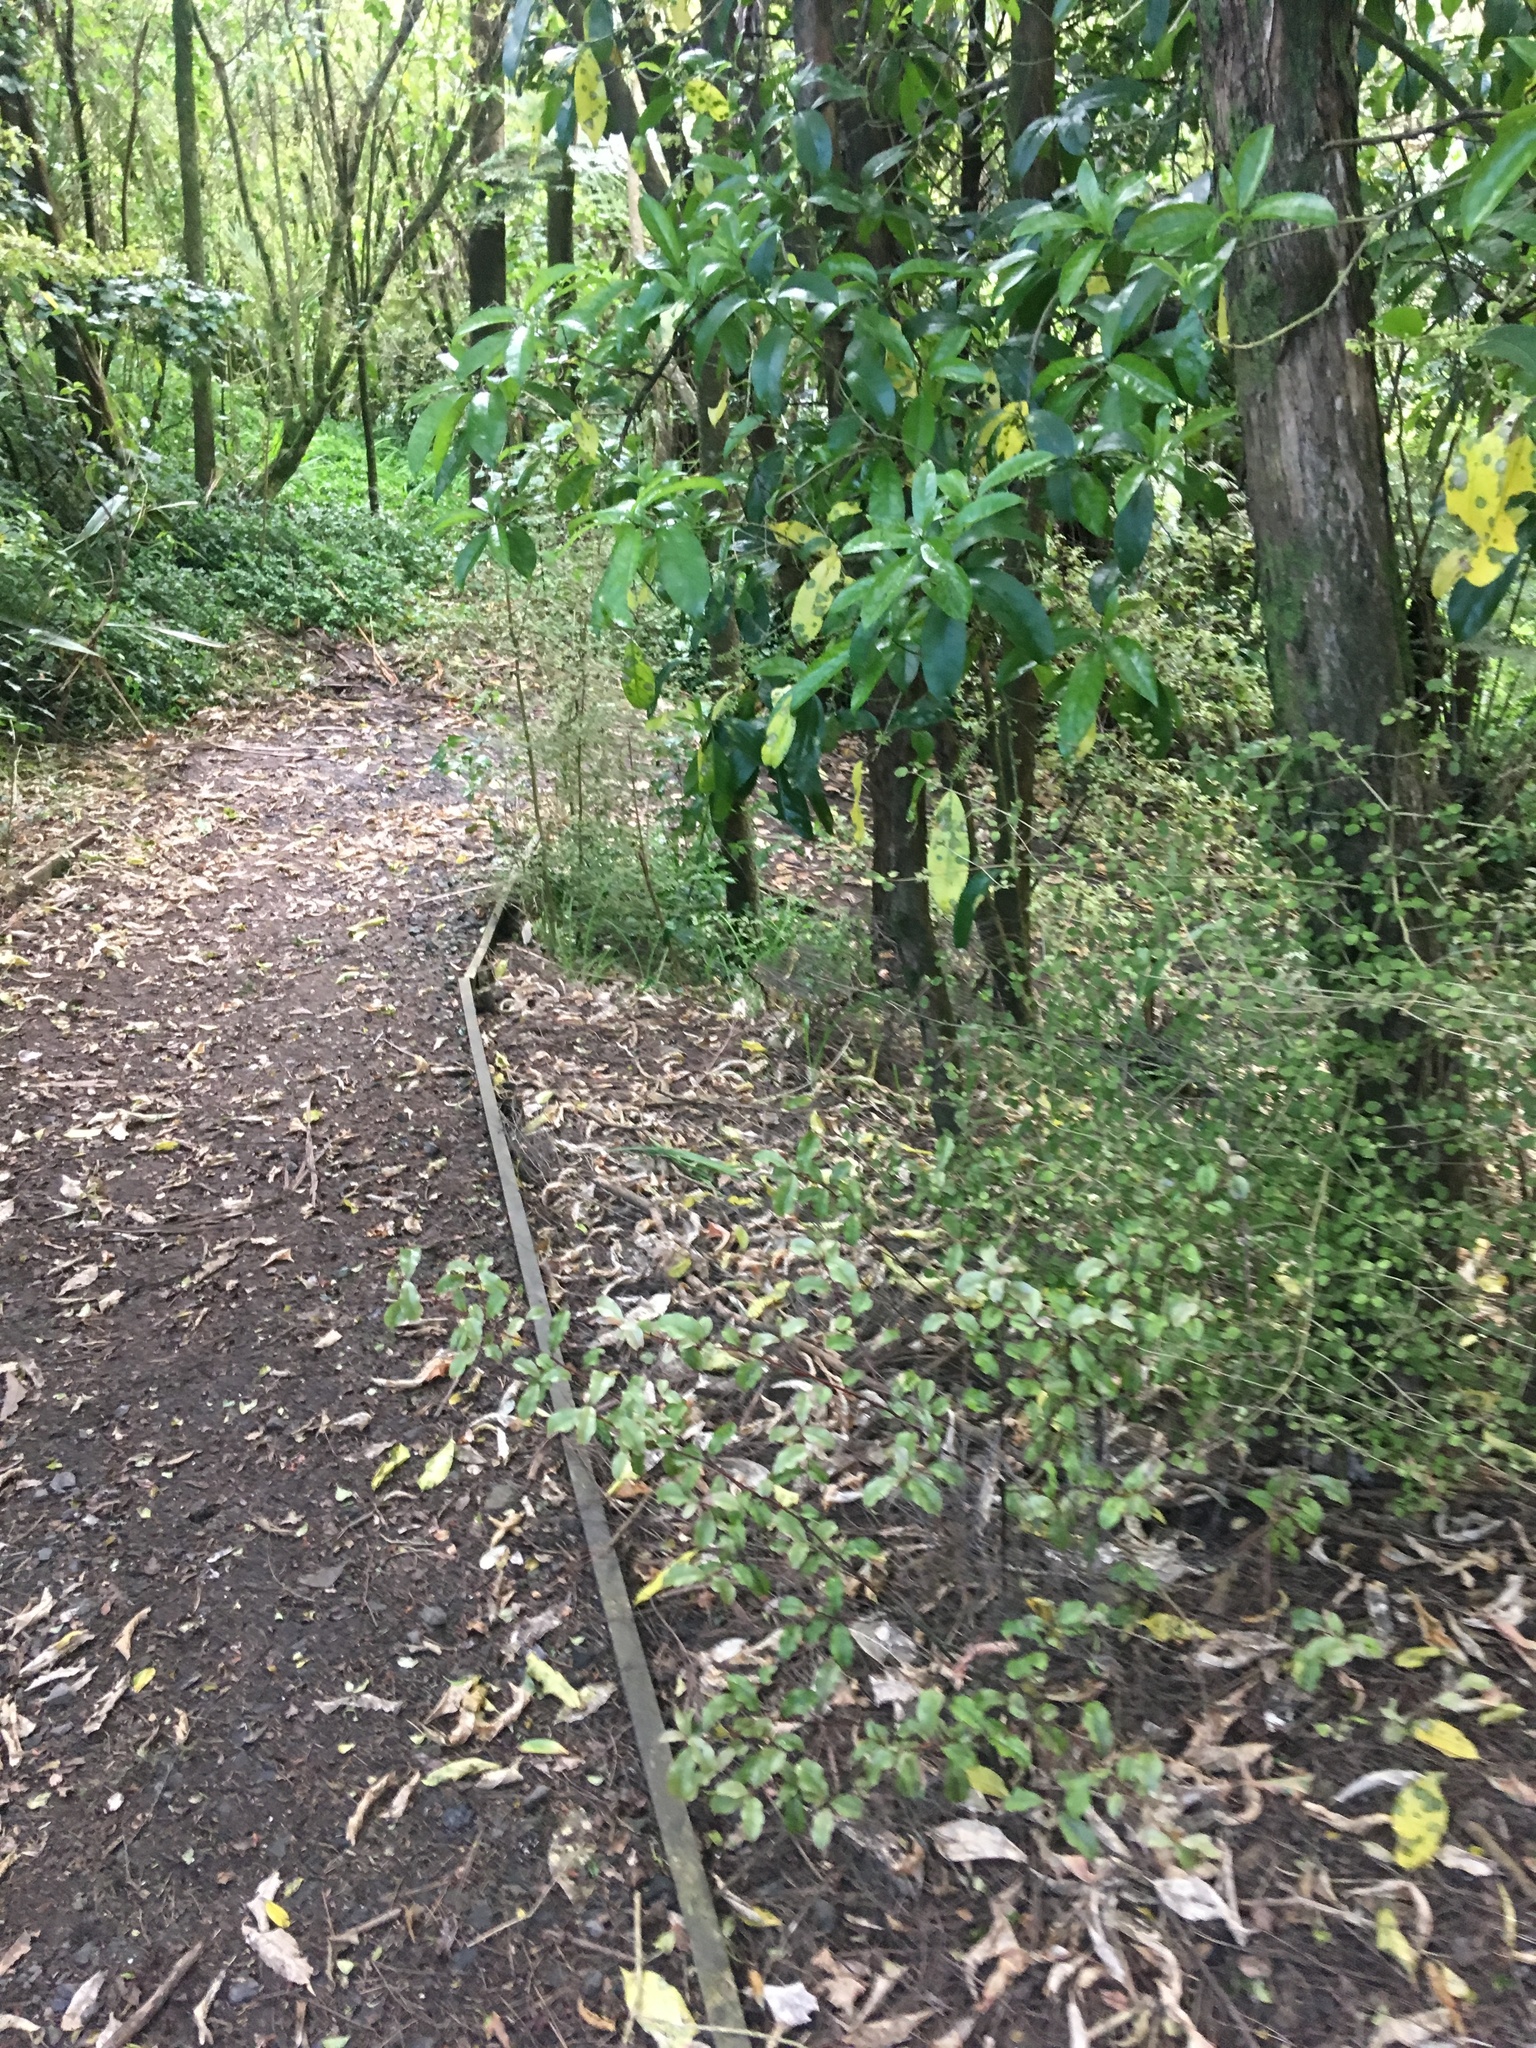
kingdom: Plantae
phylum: Tracheophyta
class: Liliopsida
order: Commelinales
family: Commelinaceae
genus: Tradescantia
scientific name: Tradescantia fluminensis
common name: Wandering-jew
